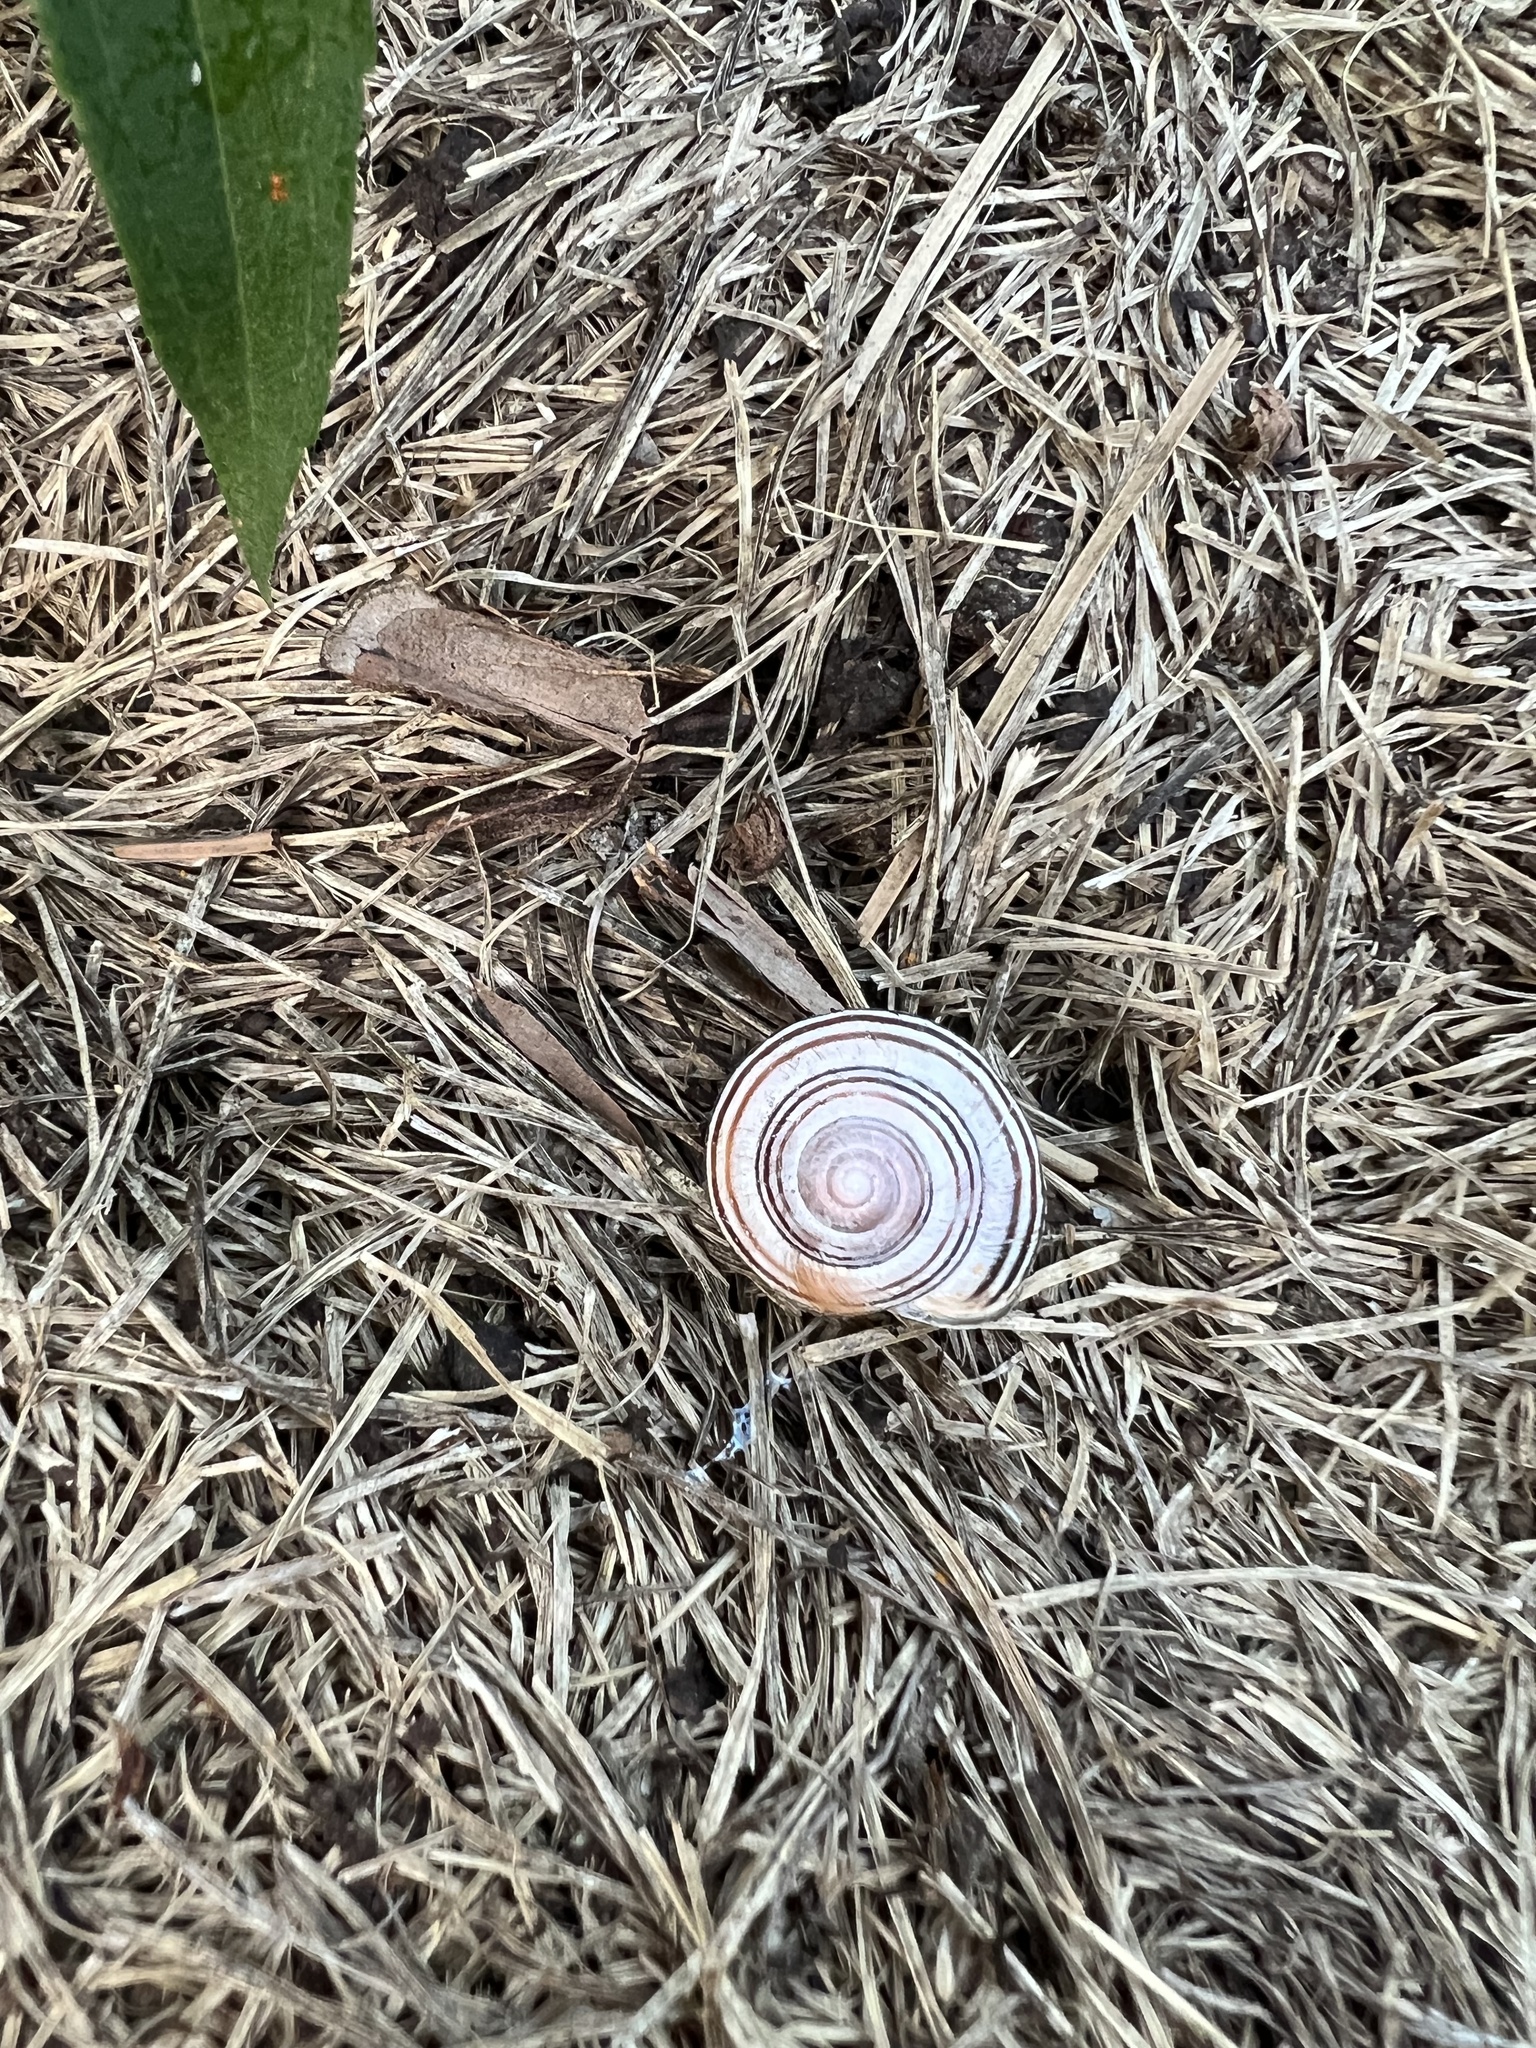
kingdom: Animalia
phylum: Mollusca
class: Gastropoda
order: Stylommatophora
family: Helicidae
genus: Cepaea
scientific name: Cepaea nemoralis
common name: Grovesnail
